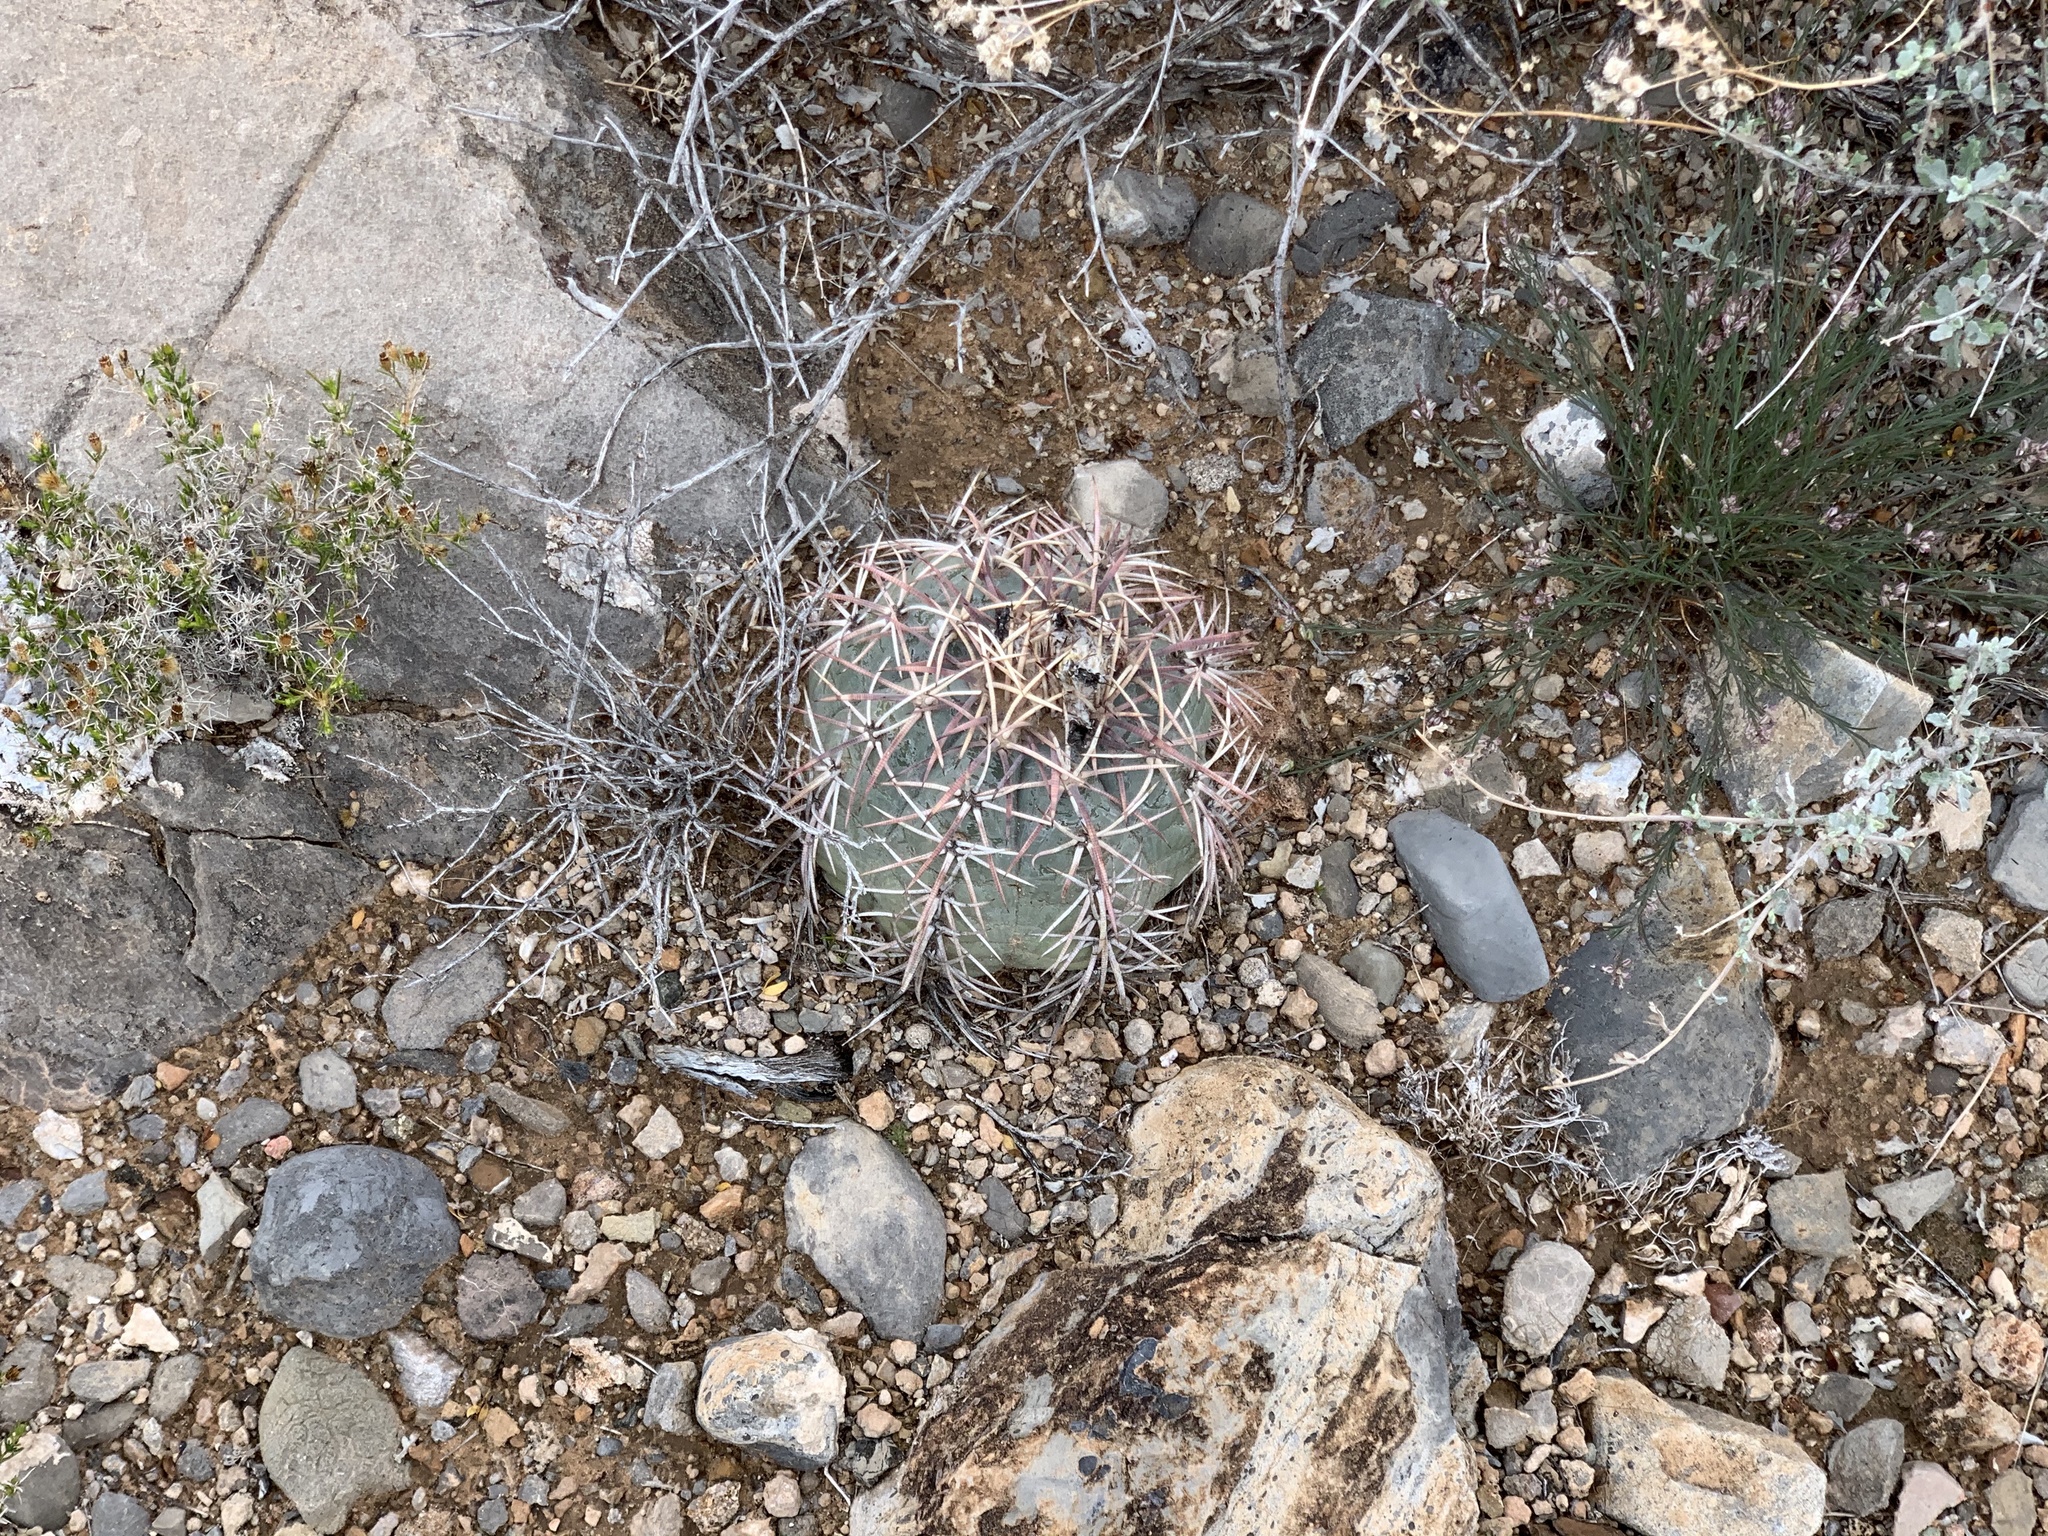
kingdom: Plantae
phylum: Tracheophyta
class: Magnoliopsida
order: Caryophyllales
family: Cactaceae
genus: Echinocactus
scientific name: Echinocactus horizonthalonius
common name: Devilshead
